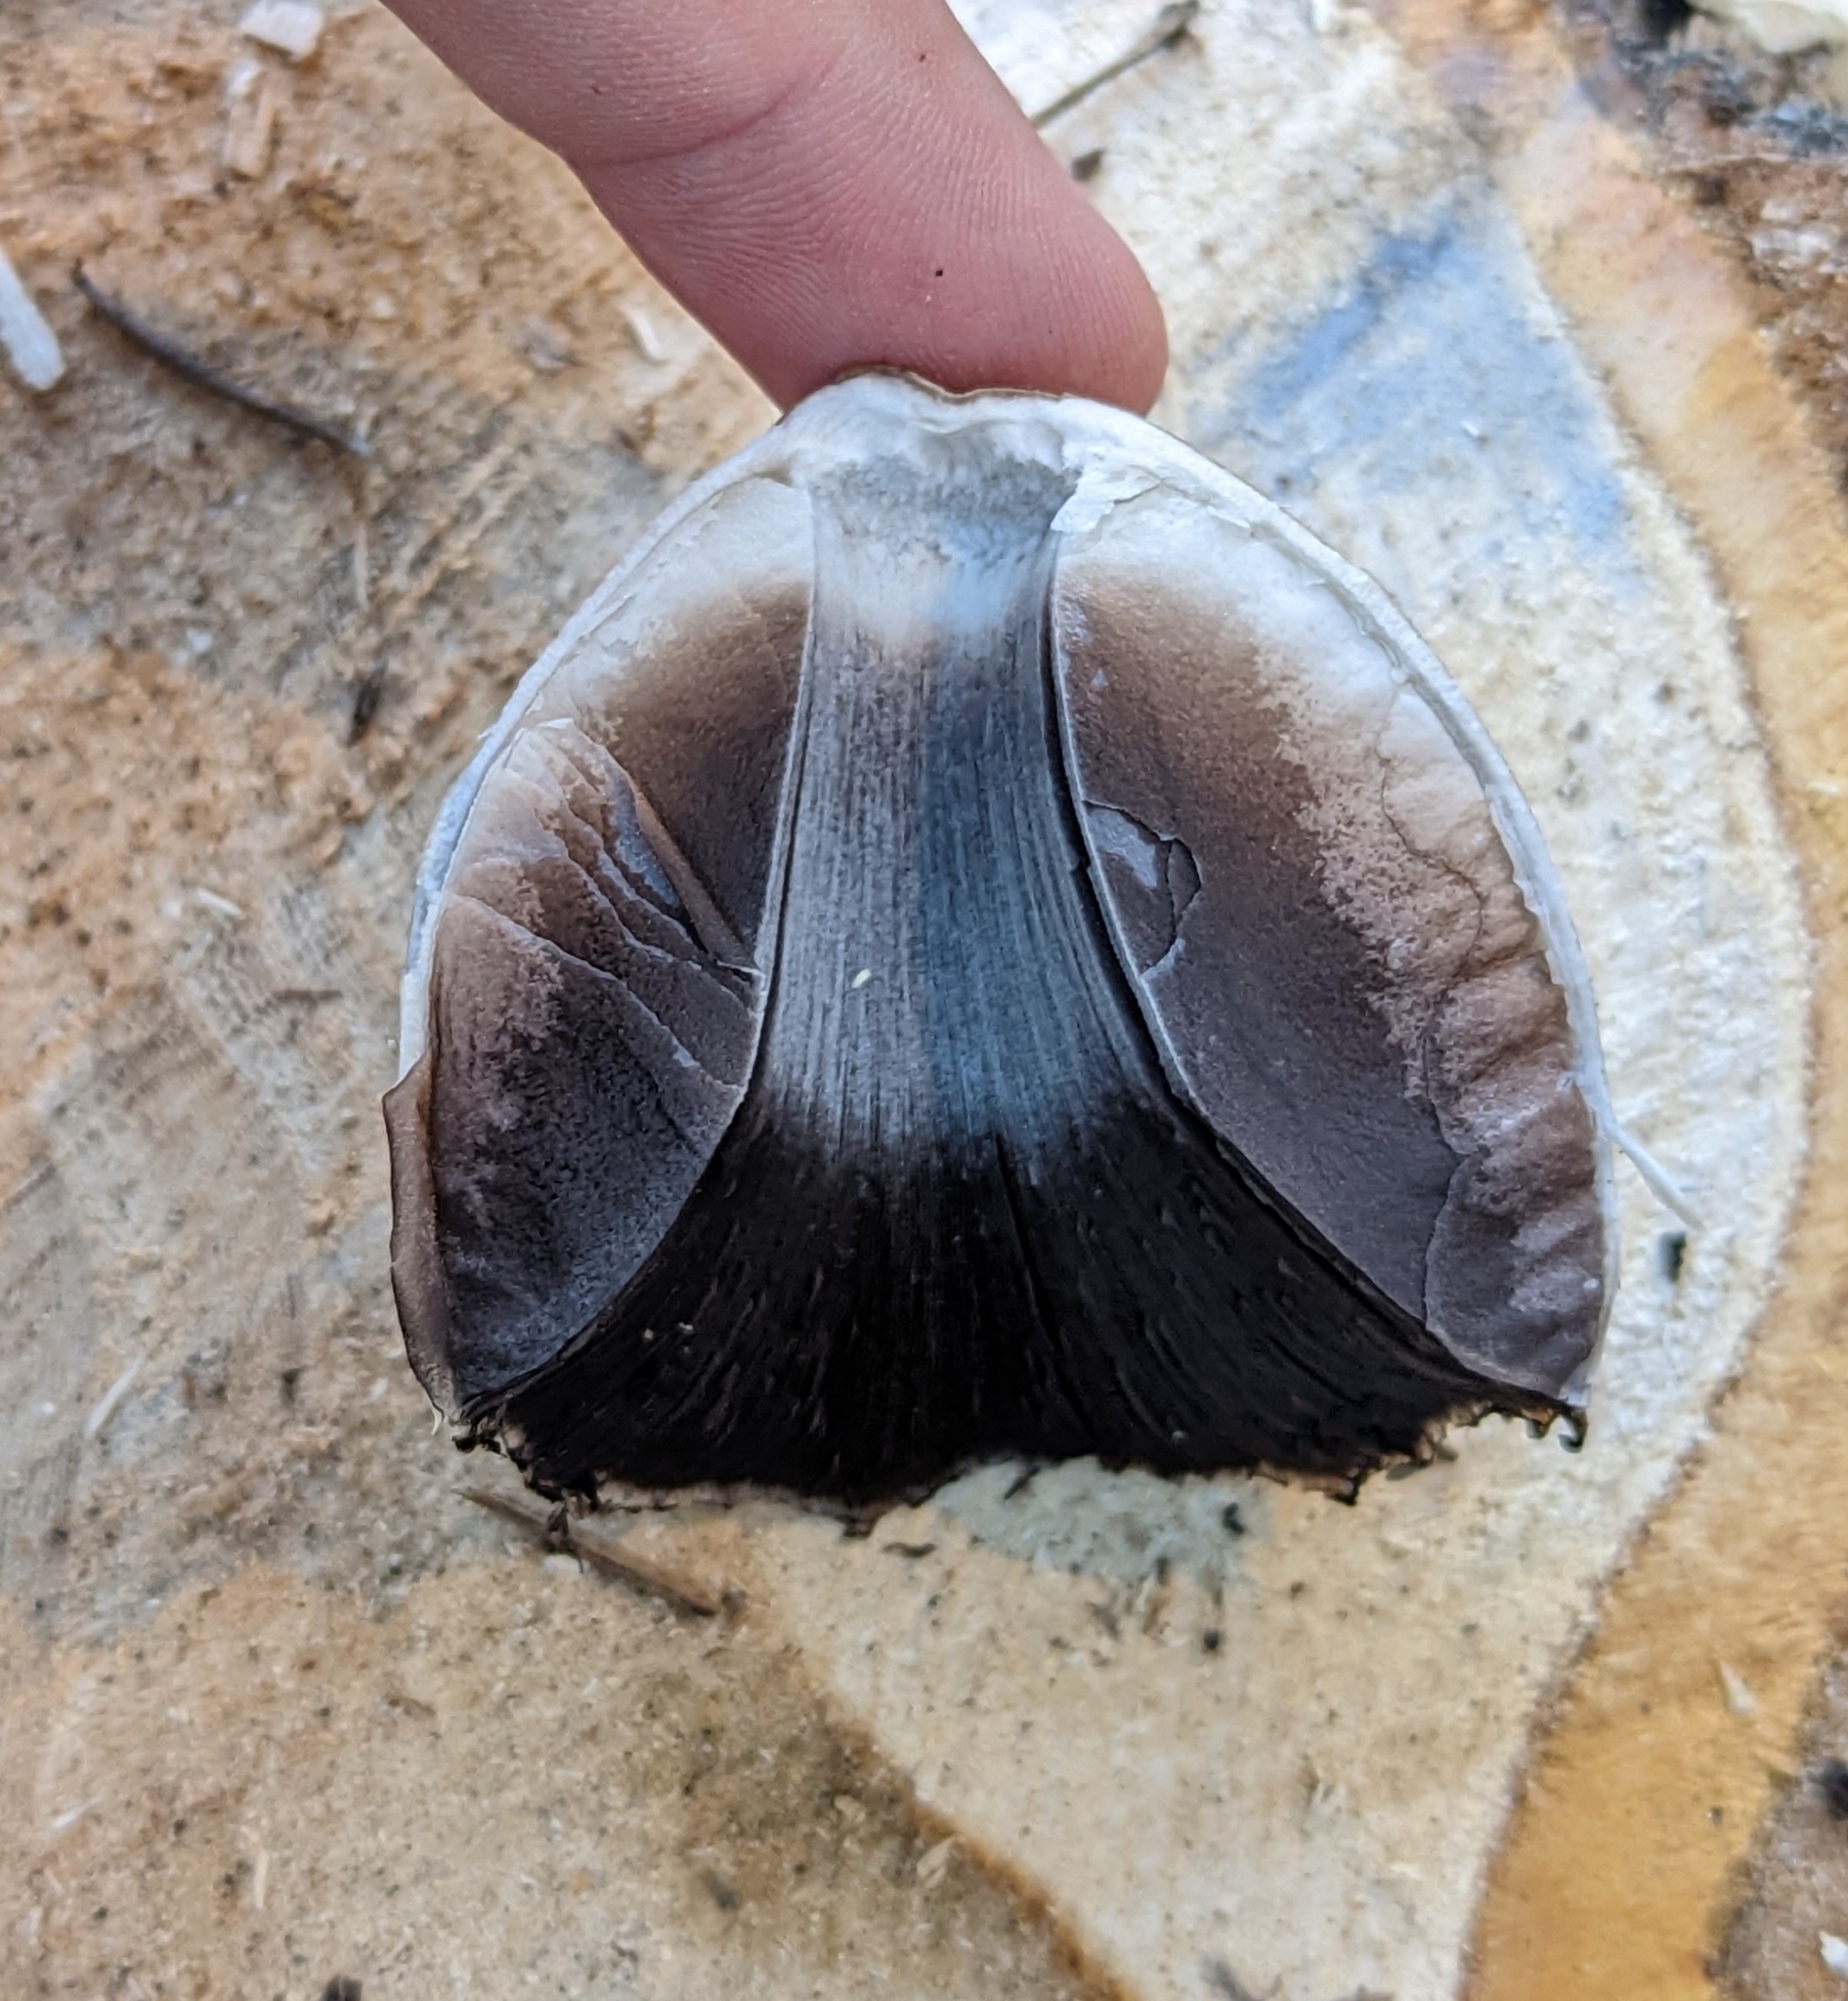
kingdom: Fungi
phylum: Basidiomycota
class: Agaricomycetes
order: Agaricales
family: Psathyrellaceae
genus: Coprinopsis
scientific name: Coprinopsis atramentaria
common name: Common ink-cap
